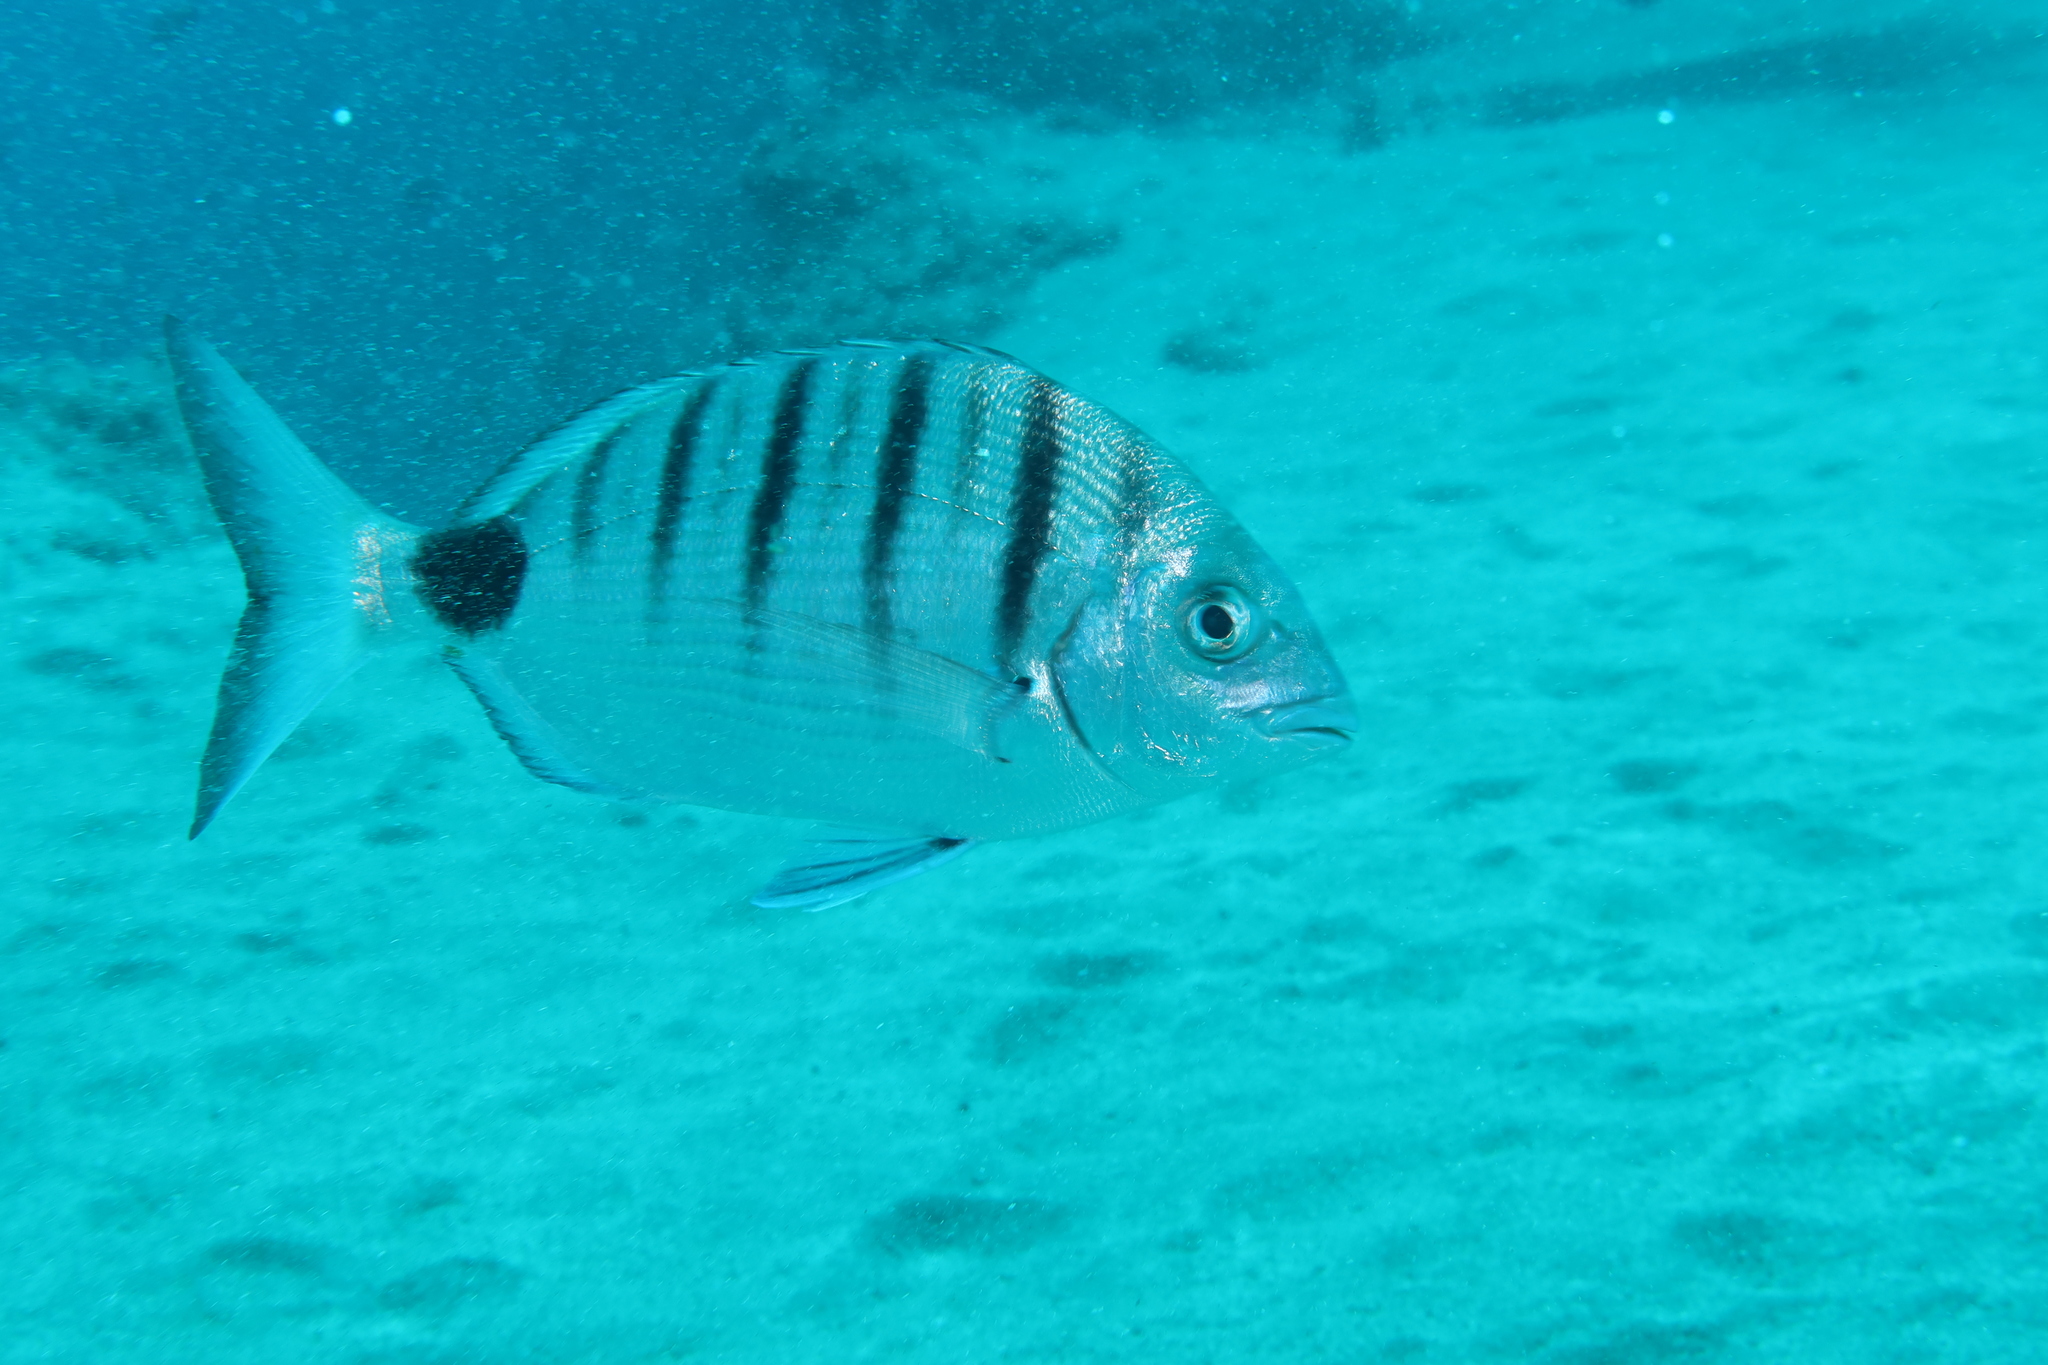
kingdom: Animalia
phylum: Chordata
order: Perciformes
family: Sparidae
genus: Diplodus
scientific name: Diplodus cadenati
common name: Moroccan white seabream
